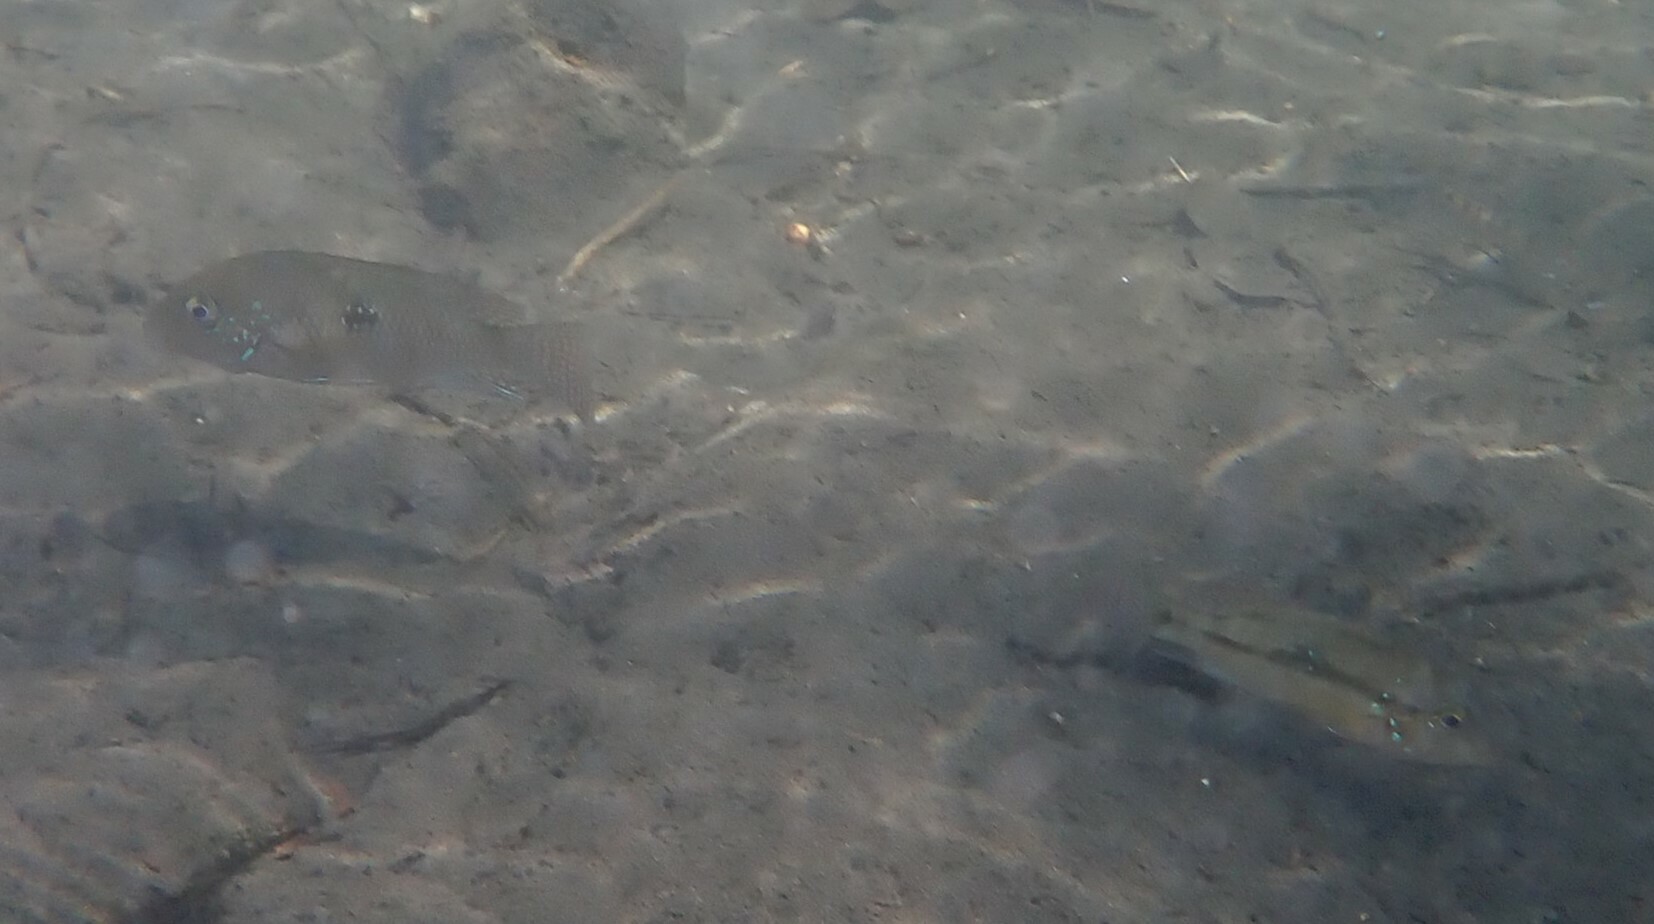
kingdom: Animalia
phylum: Chordata
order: Perciformes
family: Cichlidae
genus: Geophagus
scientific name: Geophagus brasiliensis
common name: Braziliensis
